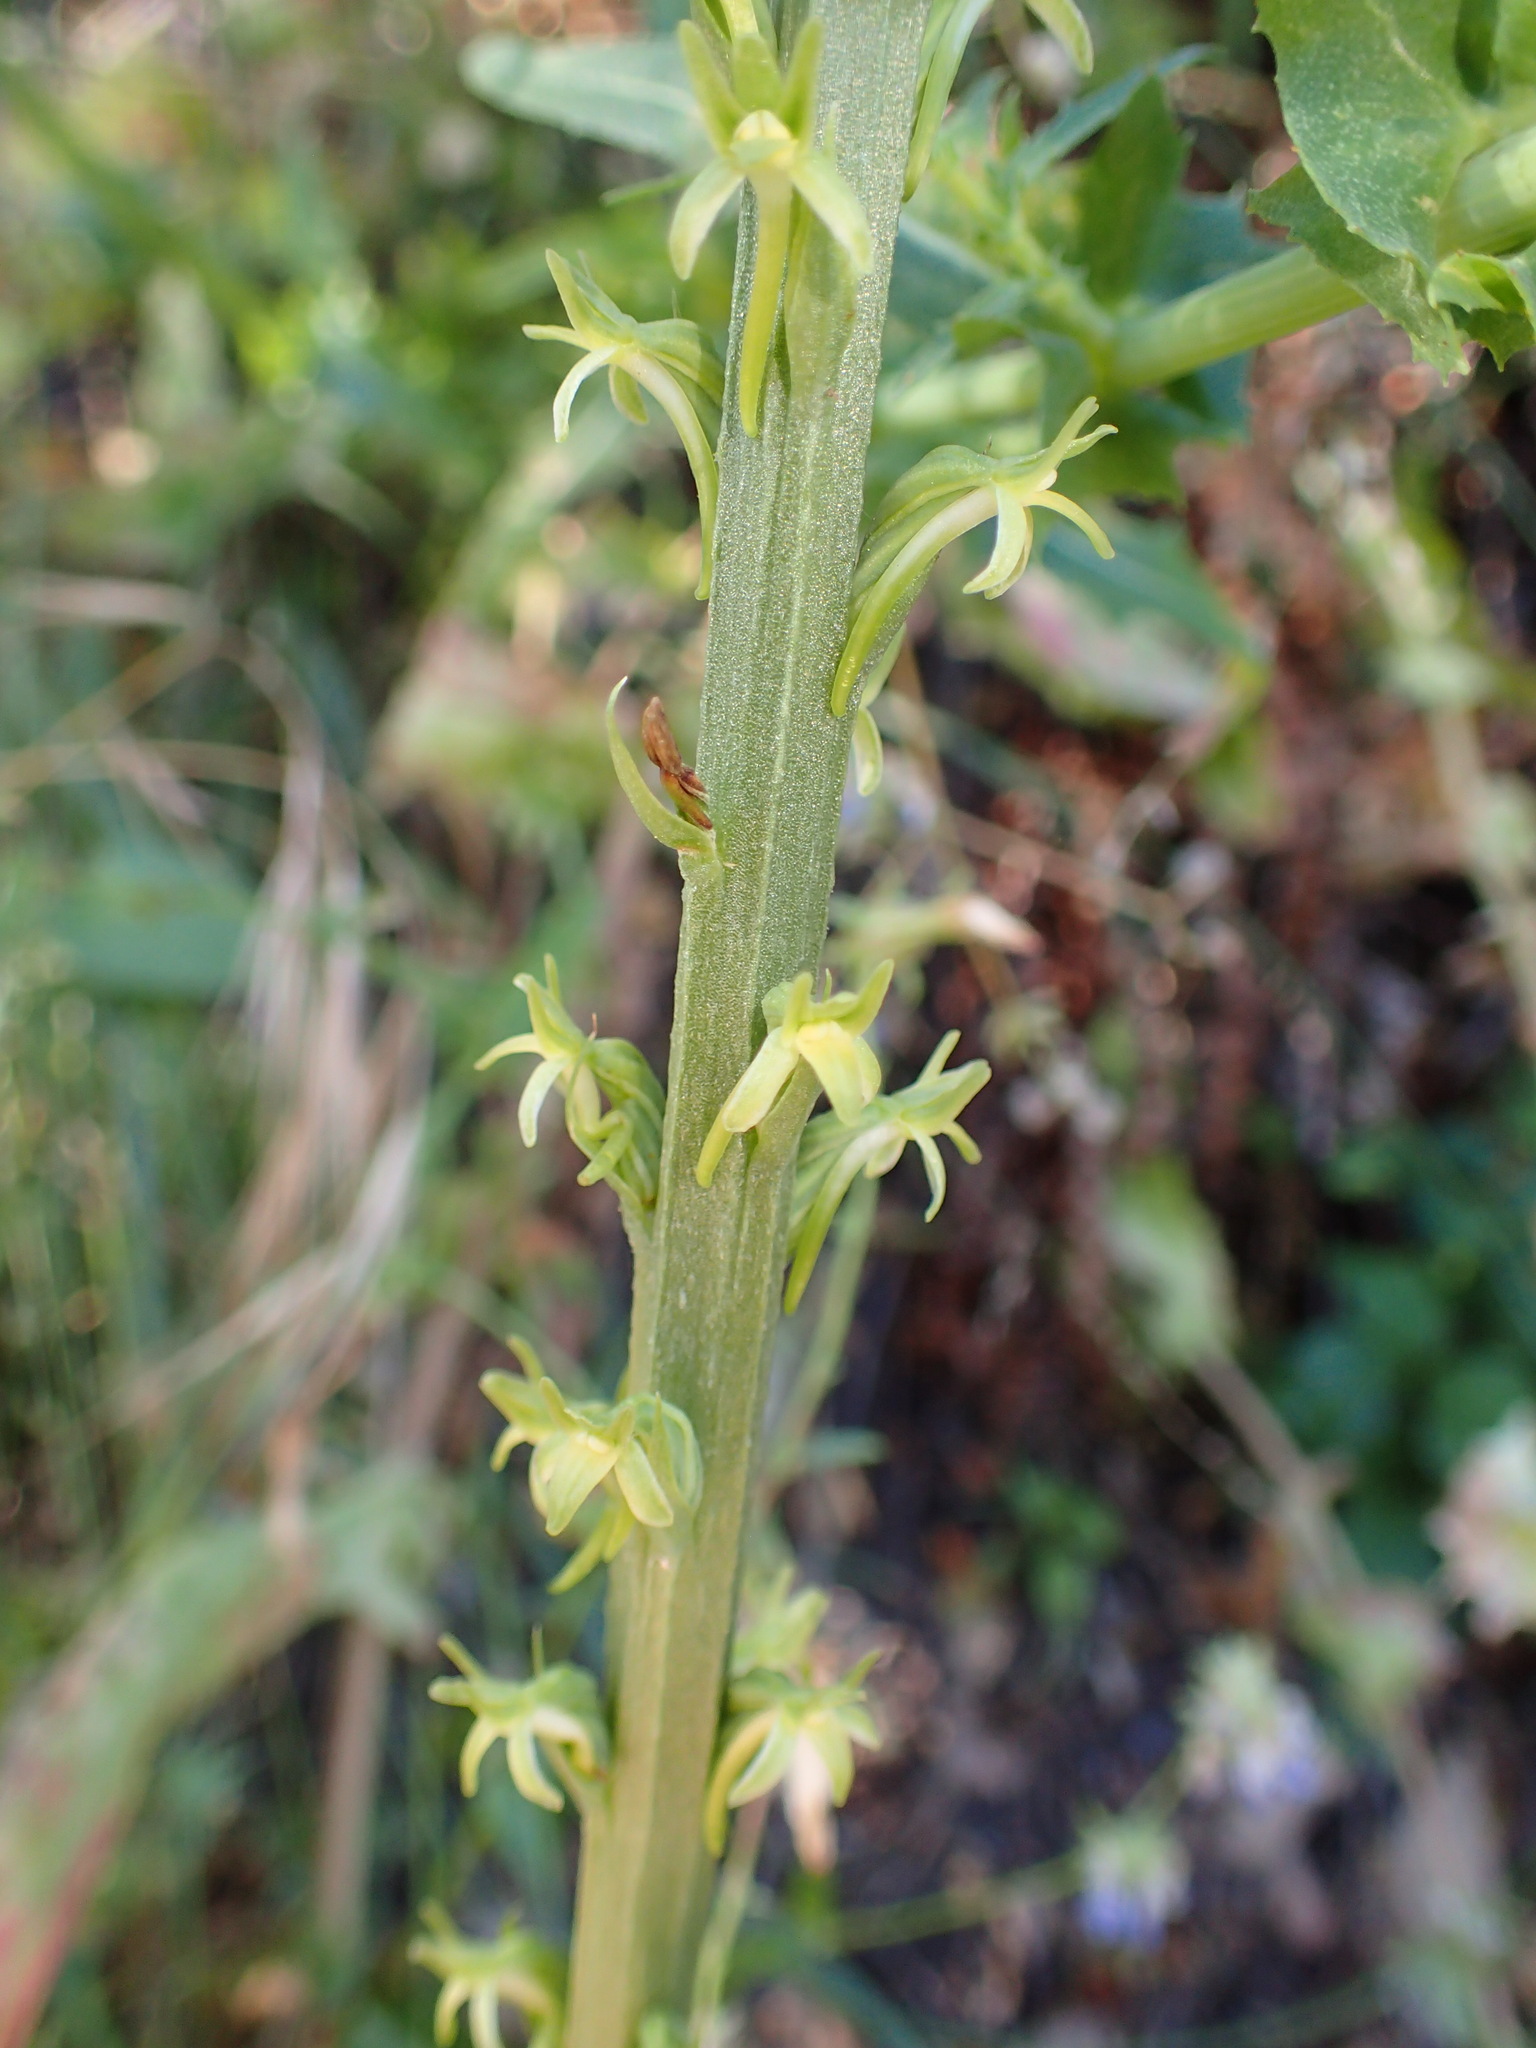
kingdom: Plantae
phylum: Tracheophyta
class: Liliopsida
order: Asparagales
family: Orchidaceae
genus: Platanthera
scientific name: Platanthera elongata
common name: Dense-flowered rein orchid
